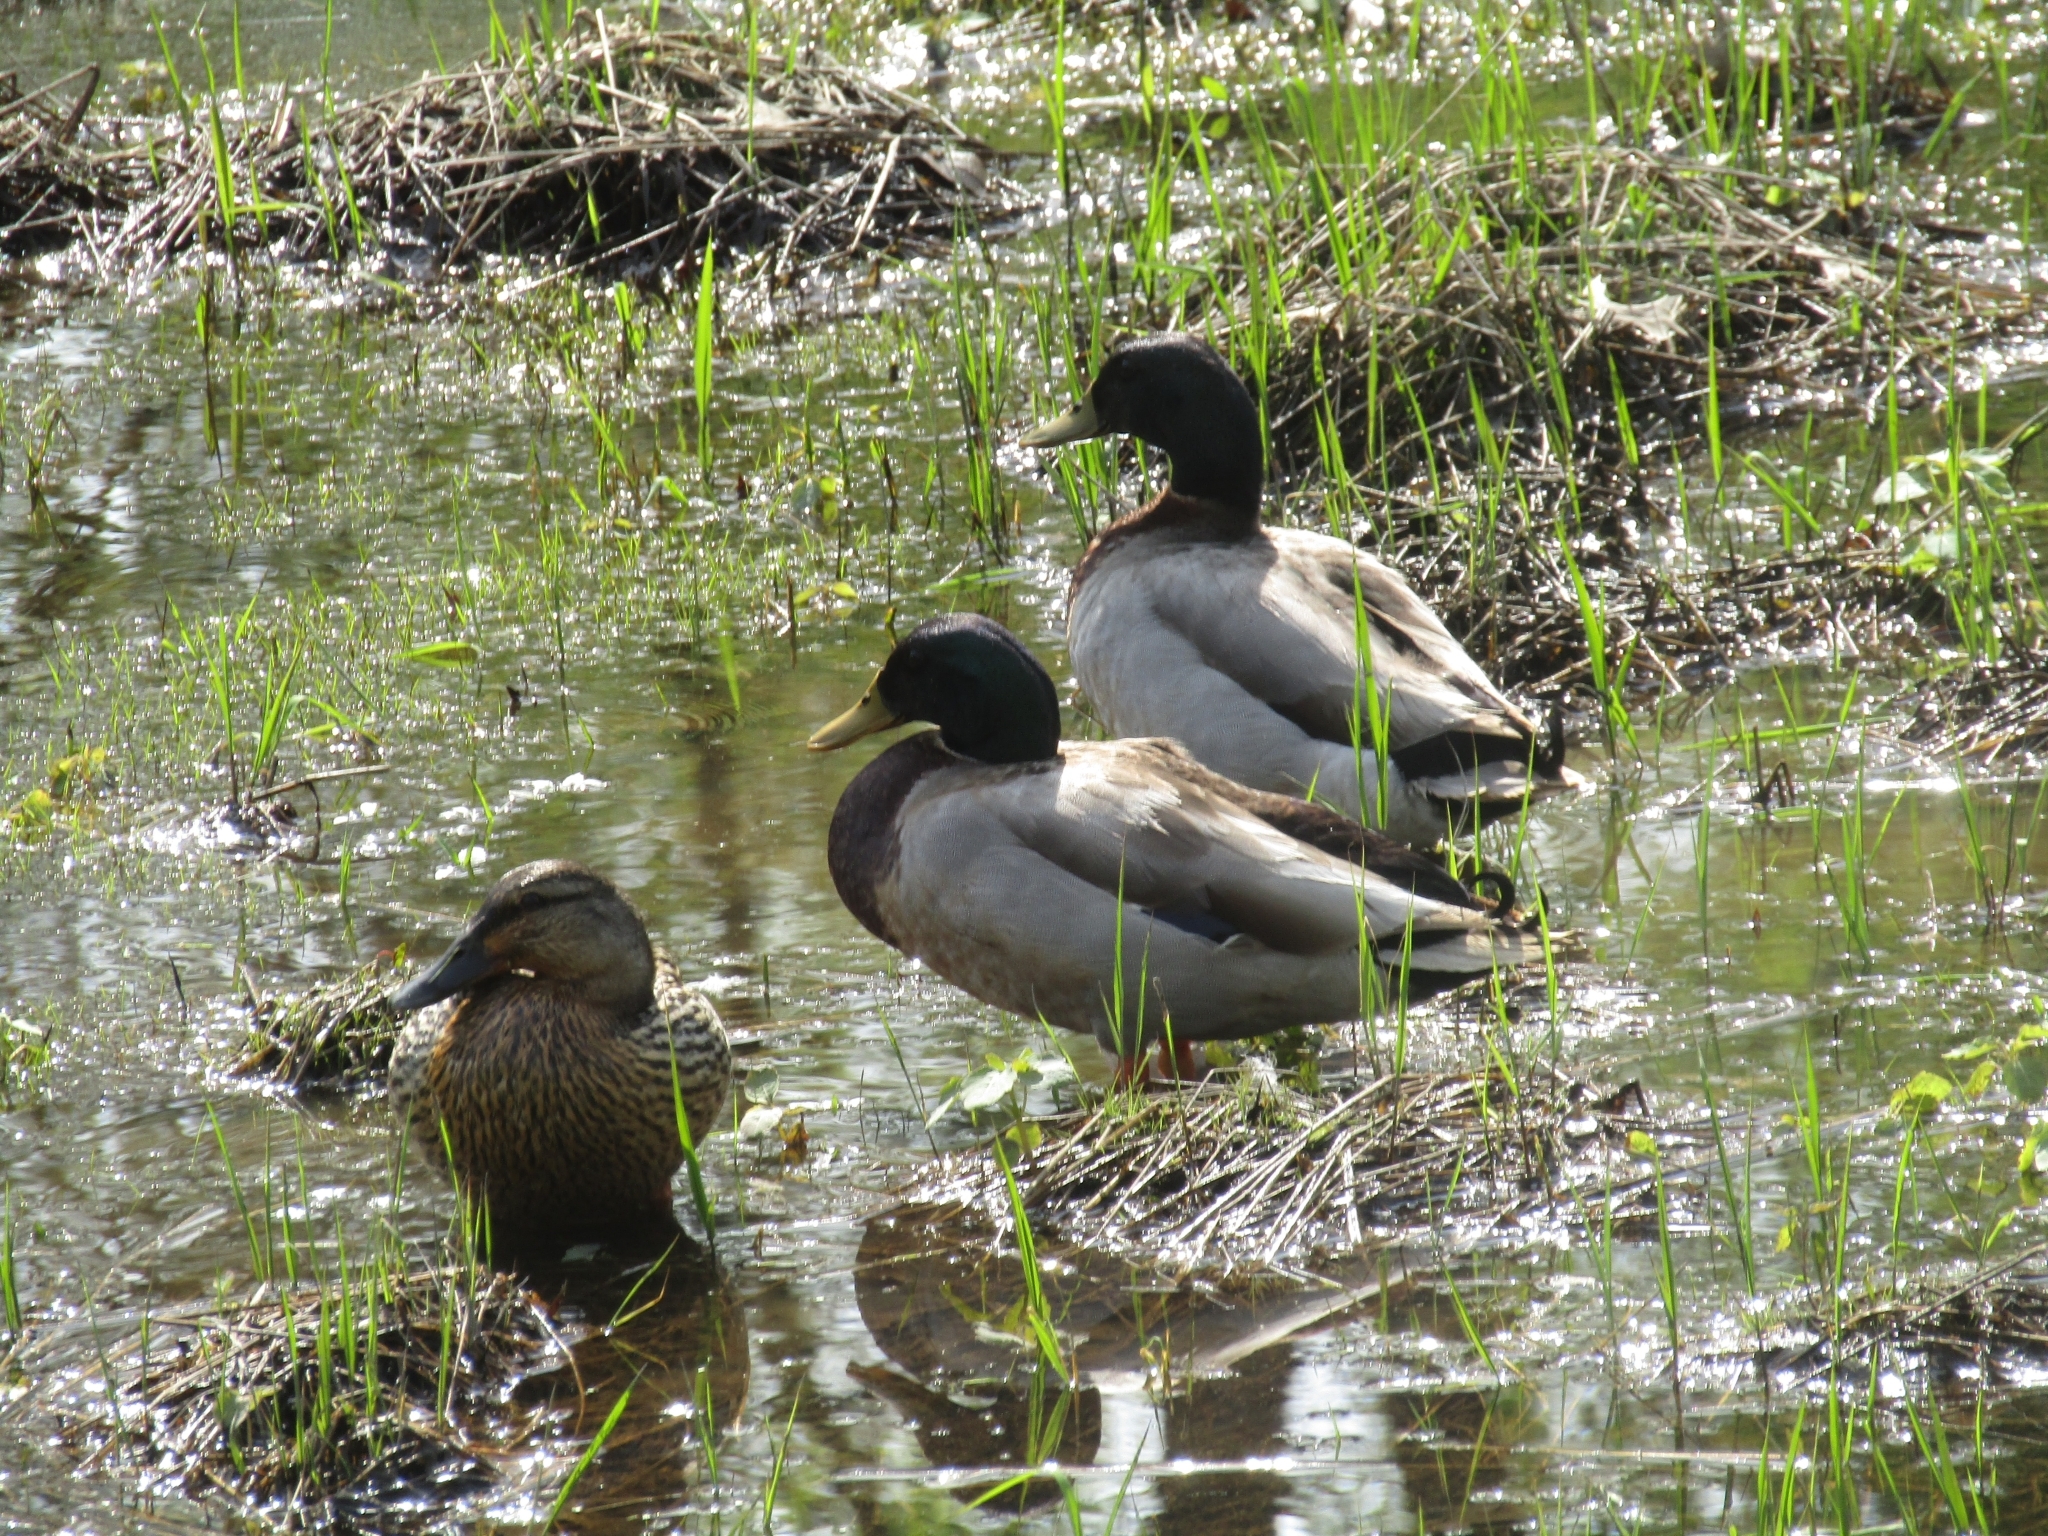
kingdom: Animalia
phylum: Chordata
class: Aves
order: Anseriformes
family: Anatidae
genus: Anas
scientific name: Anas platyrhynchos
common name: Mallard
